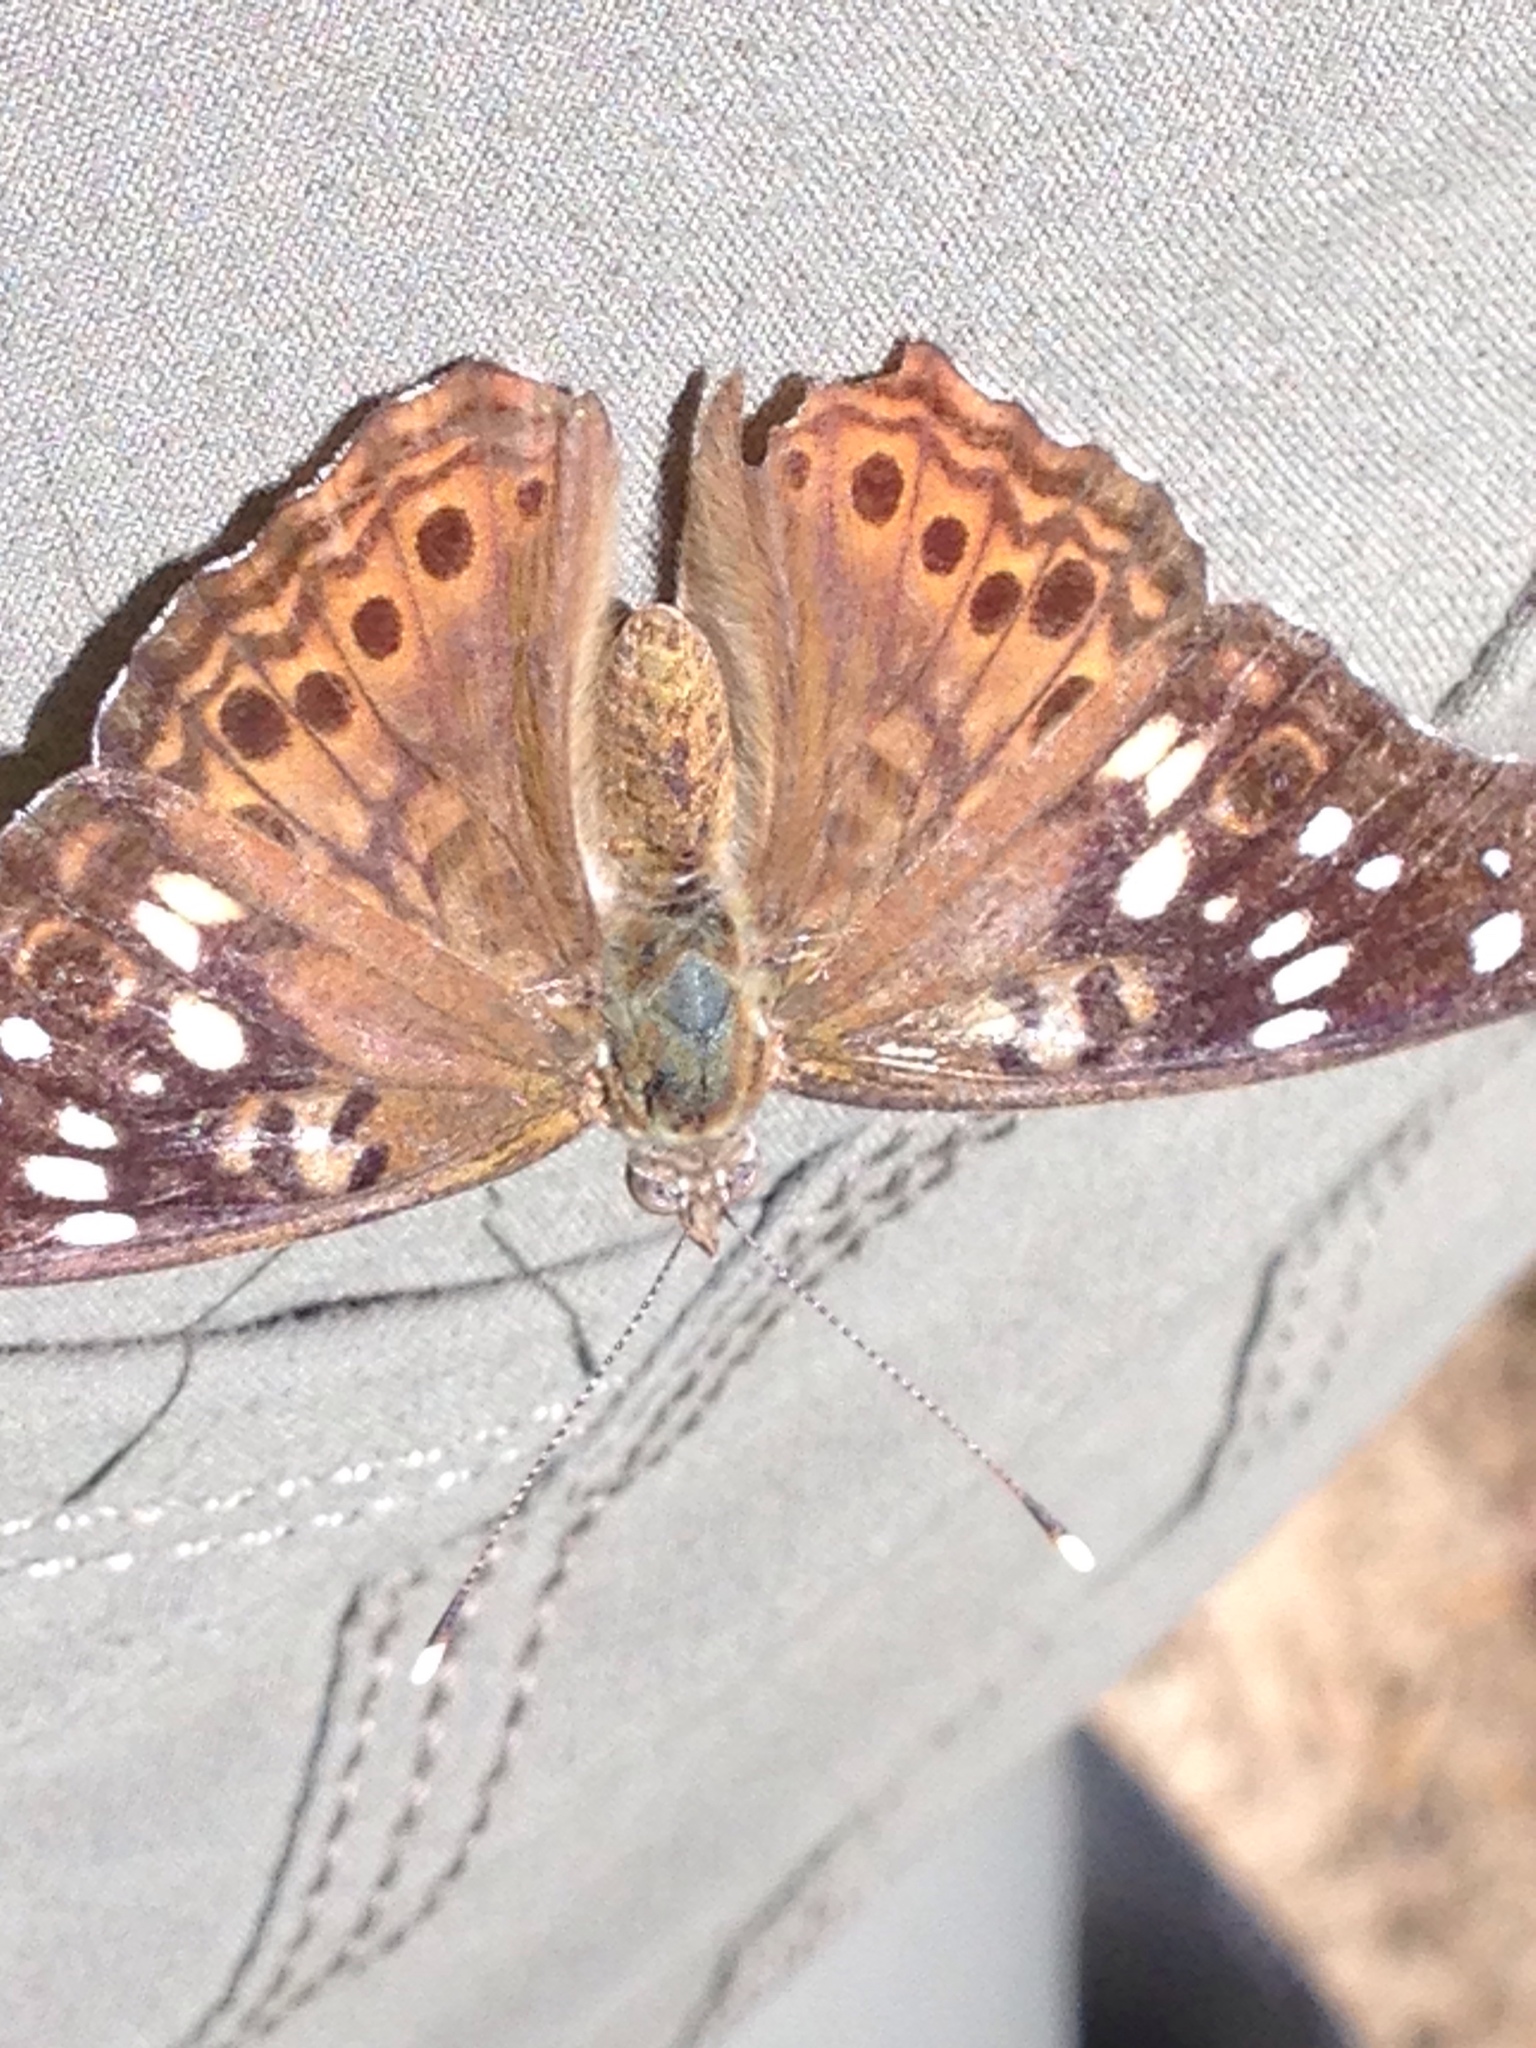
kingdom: Animalia
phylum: Arthropoda
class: Insecta
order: Lepidoptera
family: Nymphalidae
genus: Asterocampa
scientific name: Asterocampa celtis
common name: Hackberry emperor
